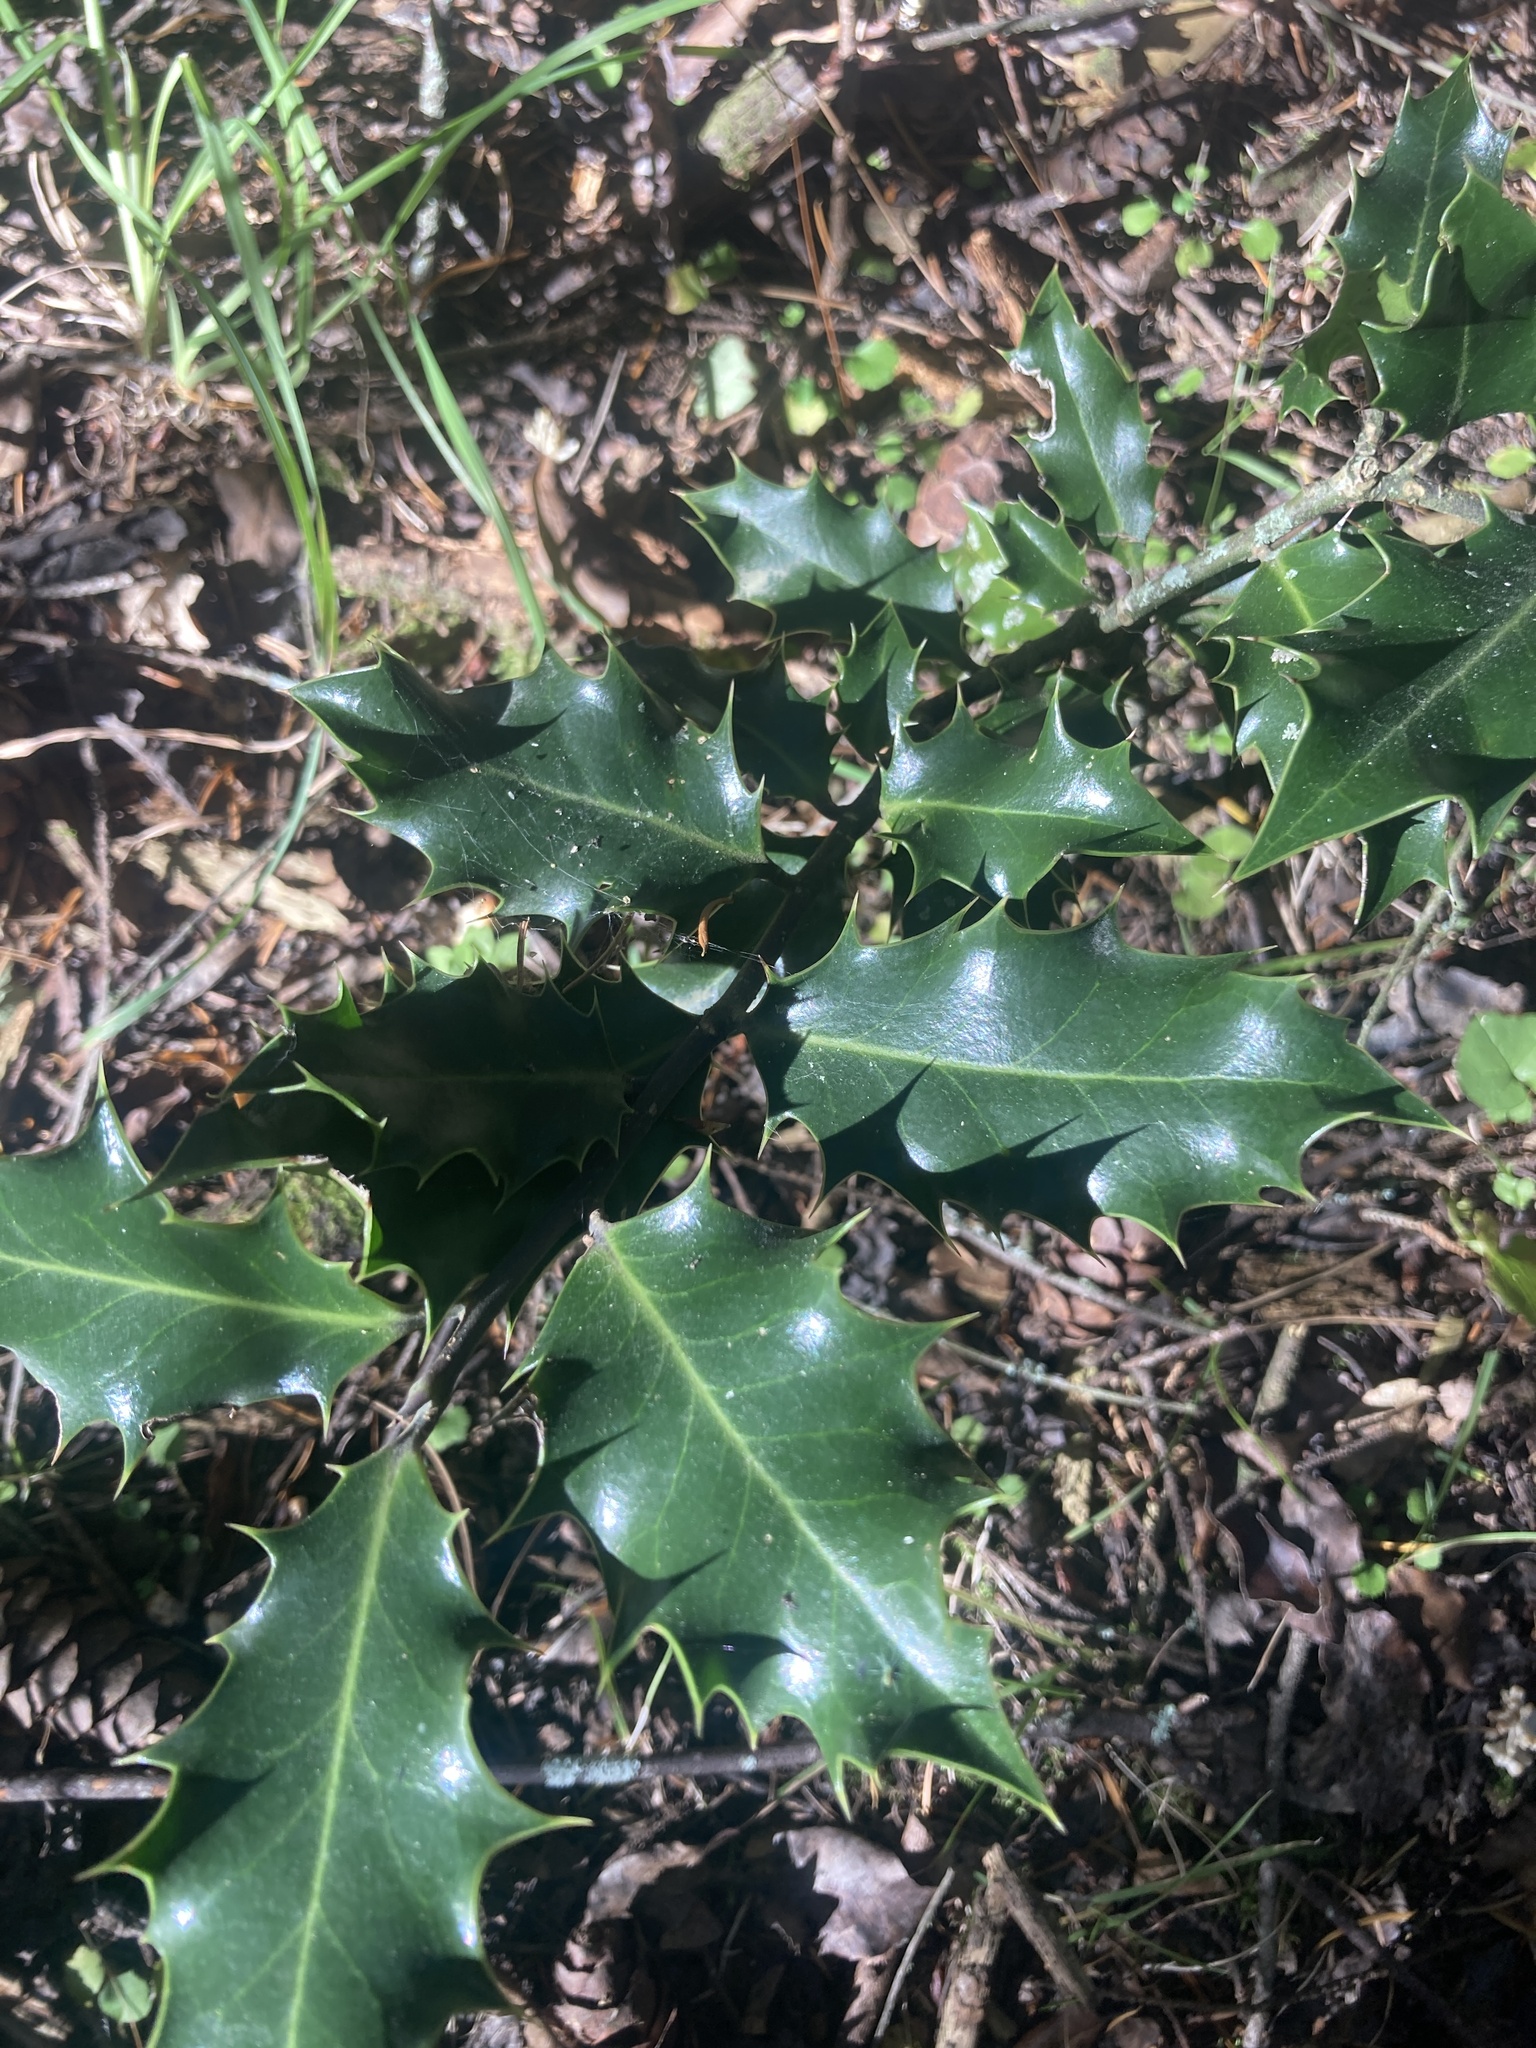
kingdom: Plantae
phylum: Tracheophyta
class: Magnoliopsida
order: Aquifoliales
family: Aquifoliaceae
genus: Ilex
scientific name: Ilex aquifolium
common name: English holly
